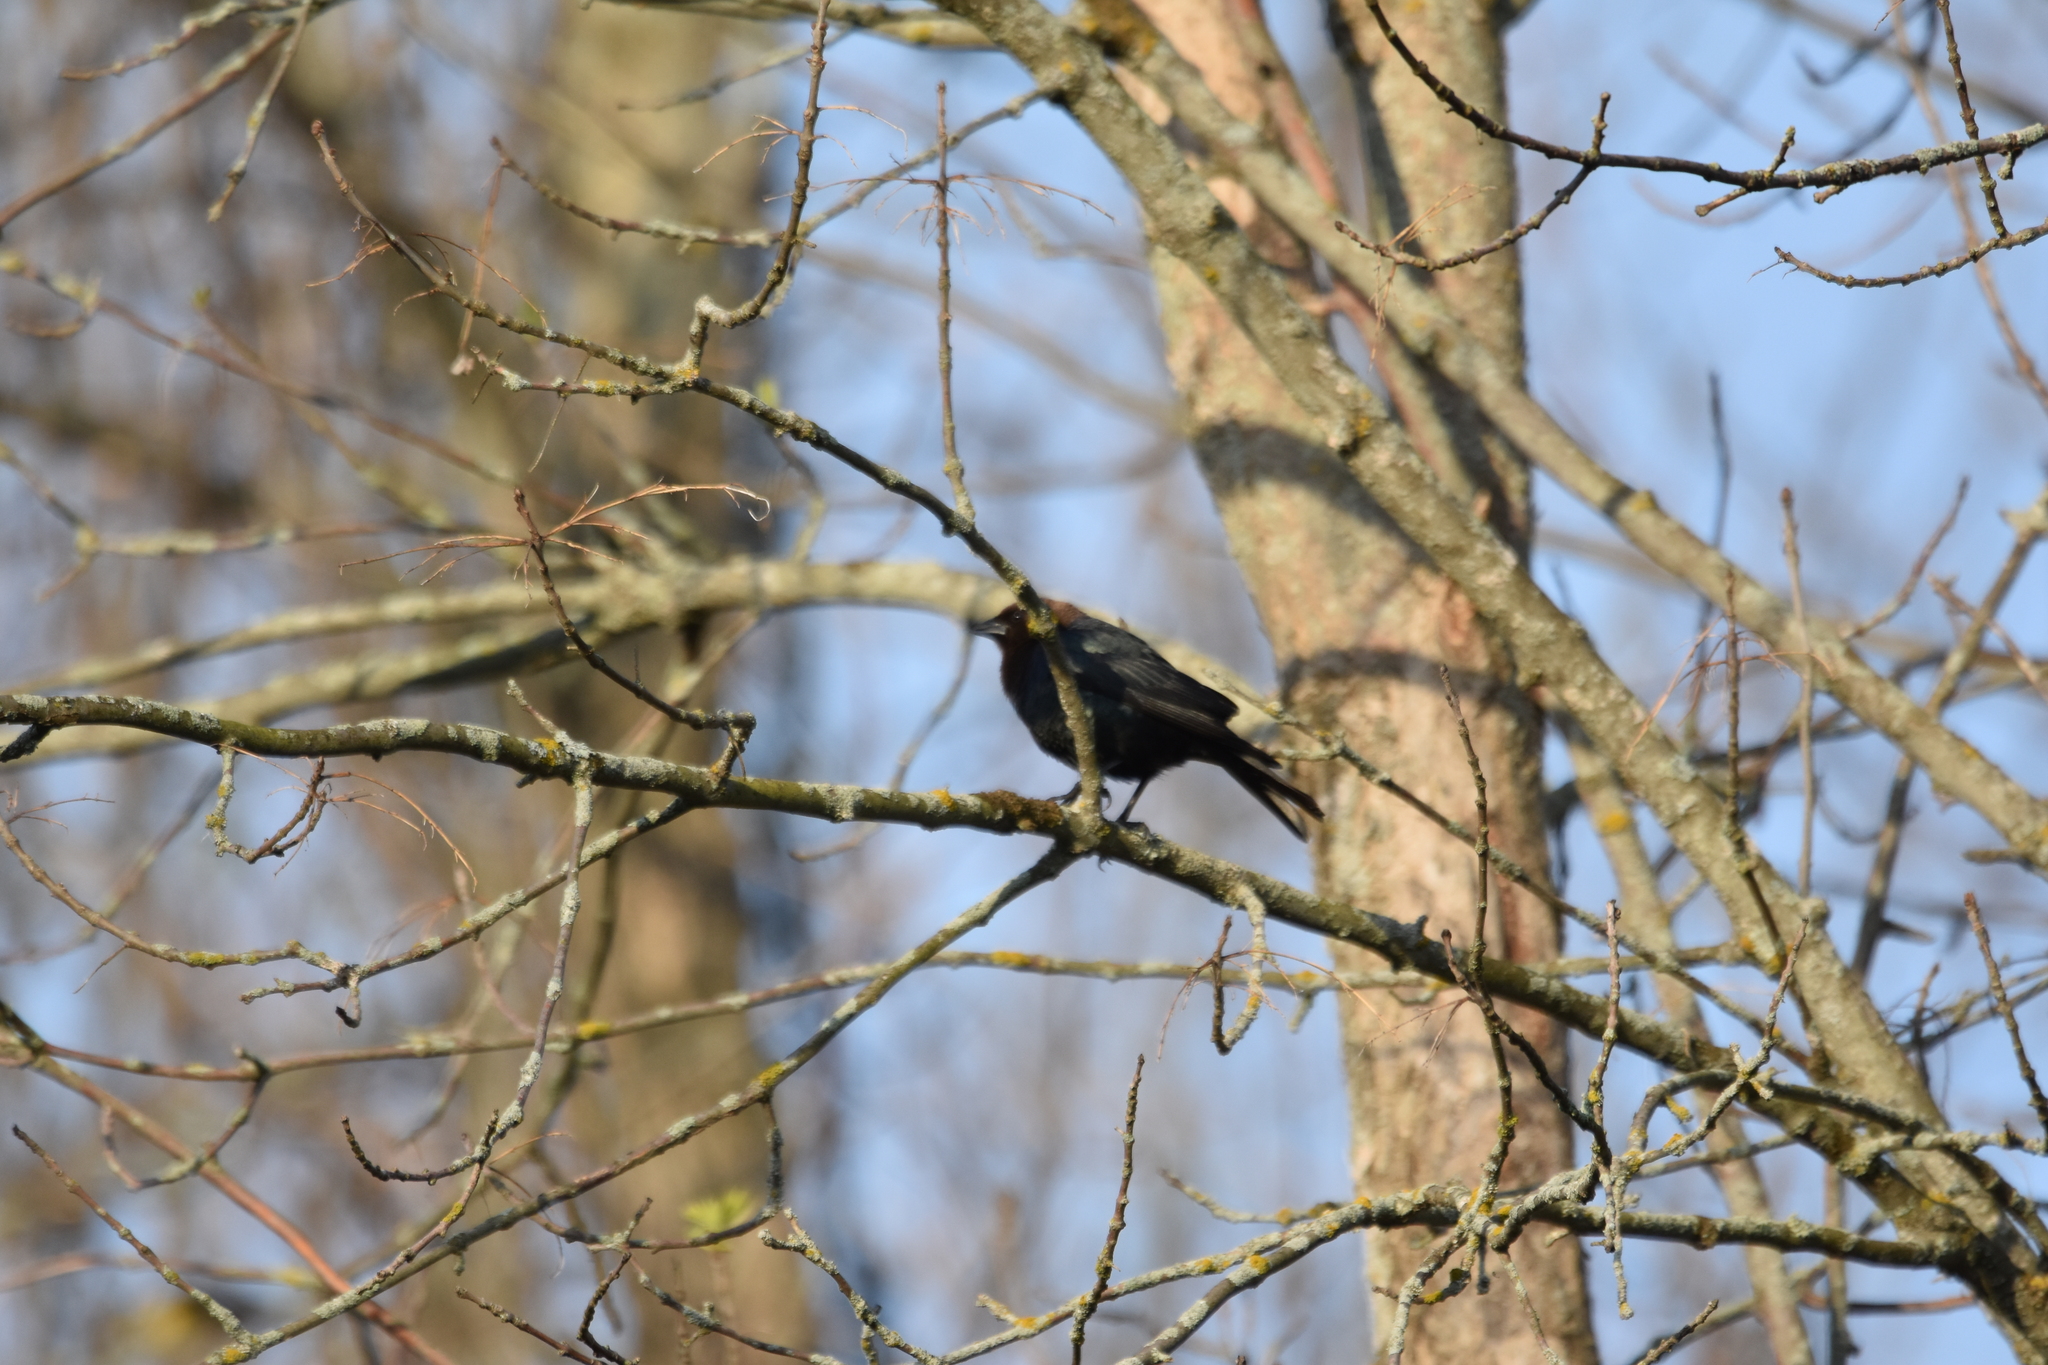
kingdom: Animalia
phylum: Chordata
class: Aves
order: Passeriformes
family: Icteridae
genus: Molothrus
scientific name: Molothrus ater
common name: Brown-headed cowbird
